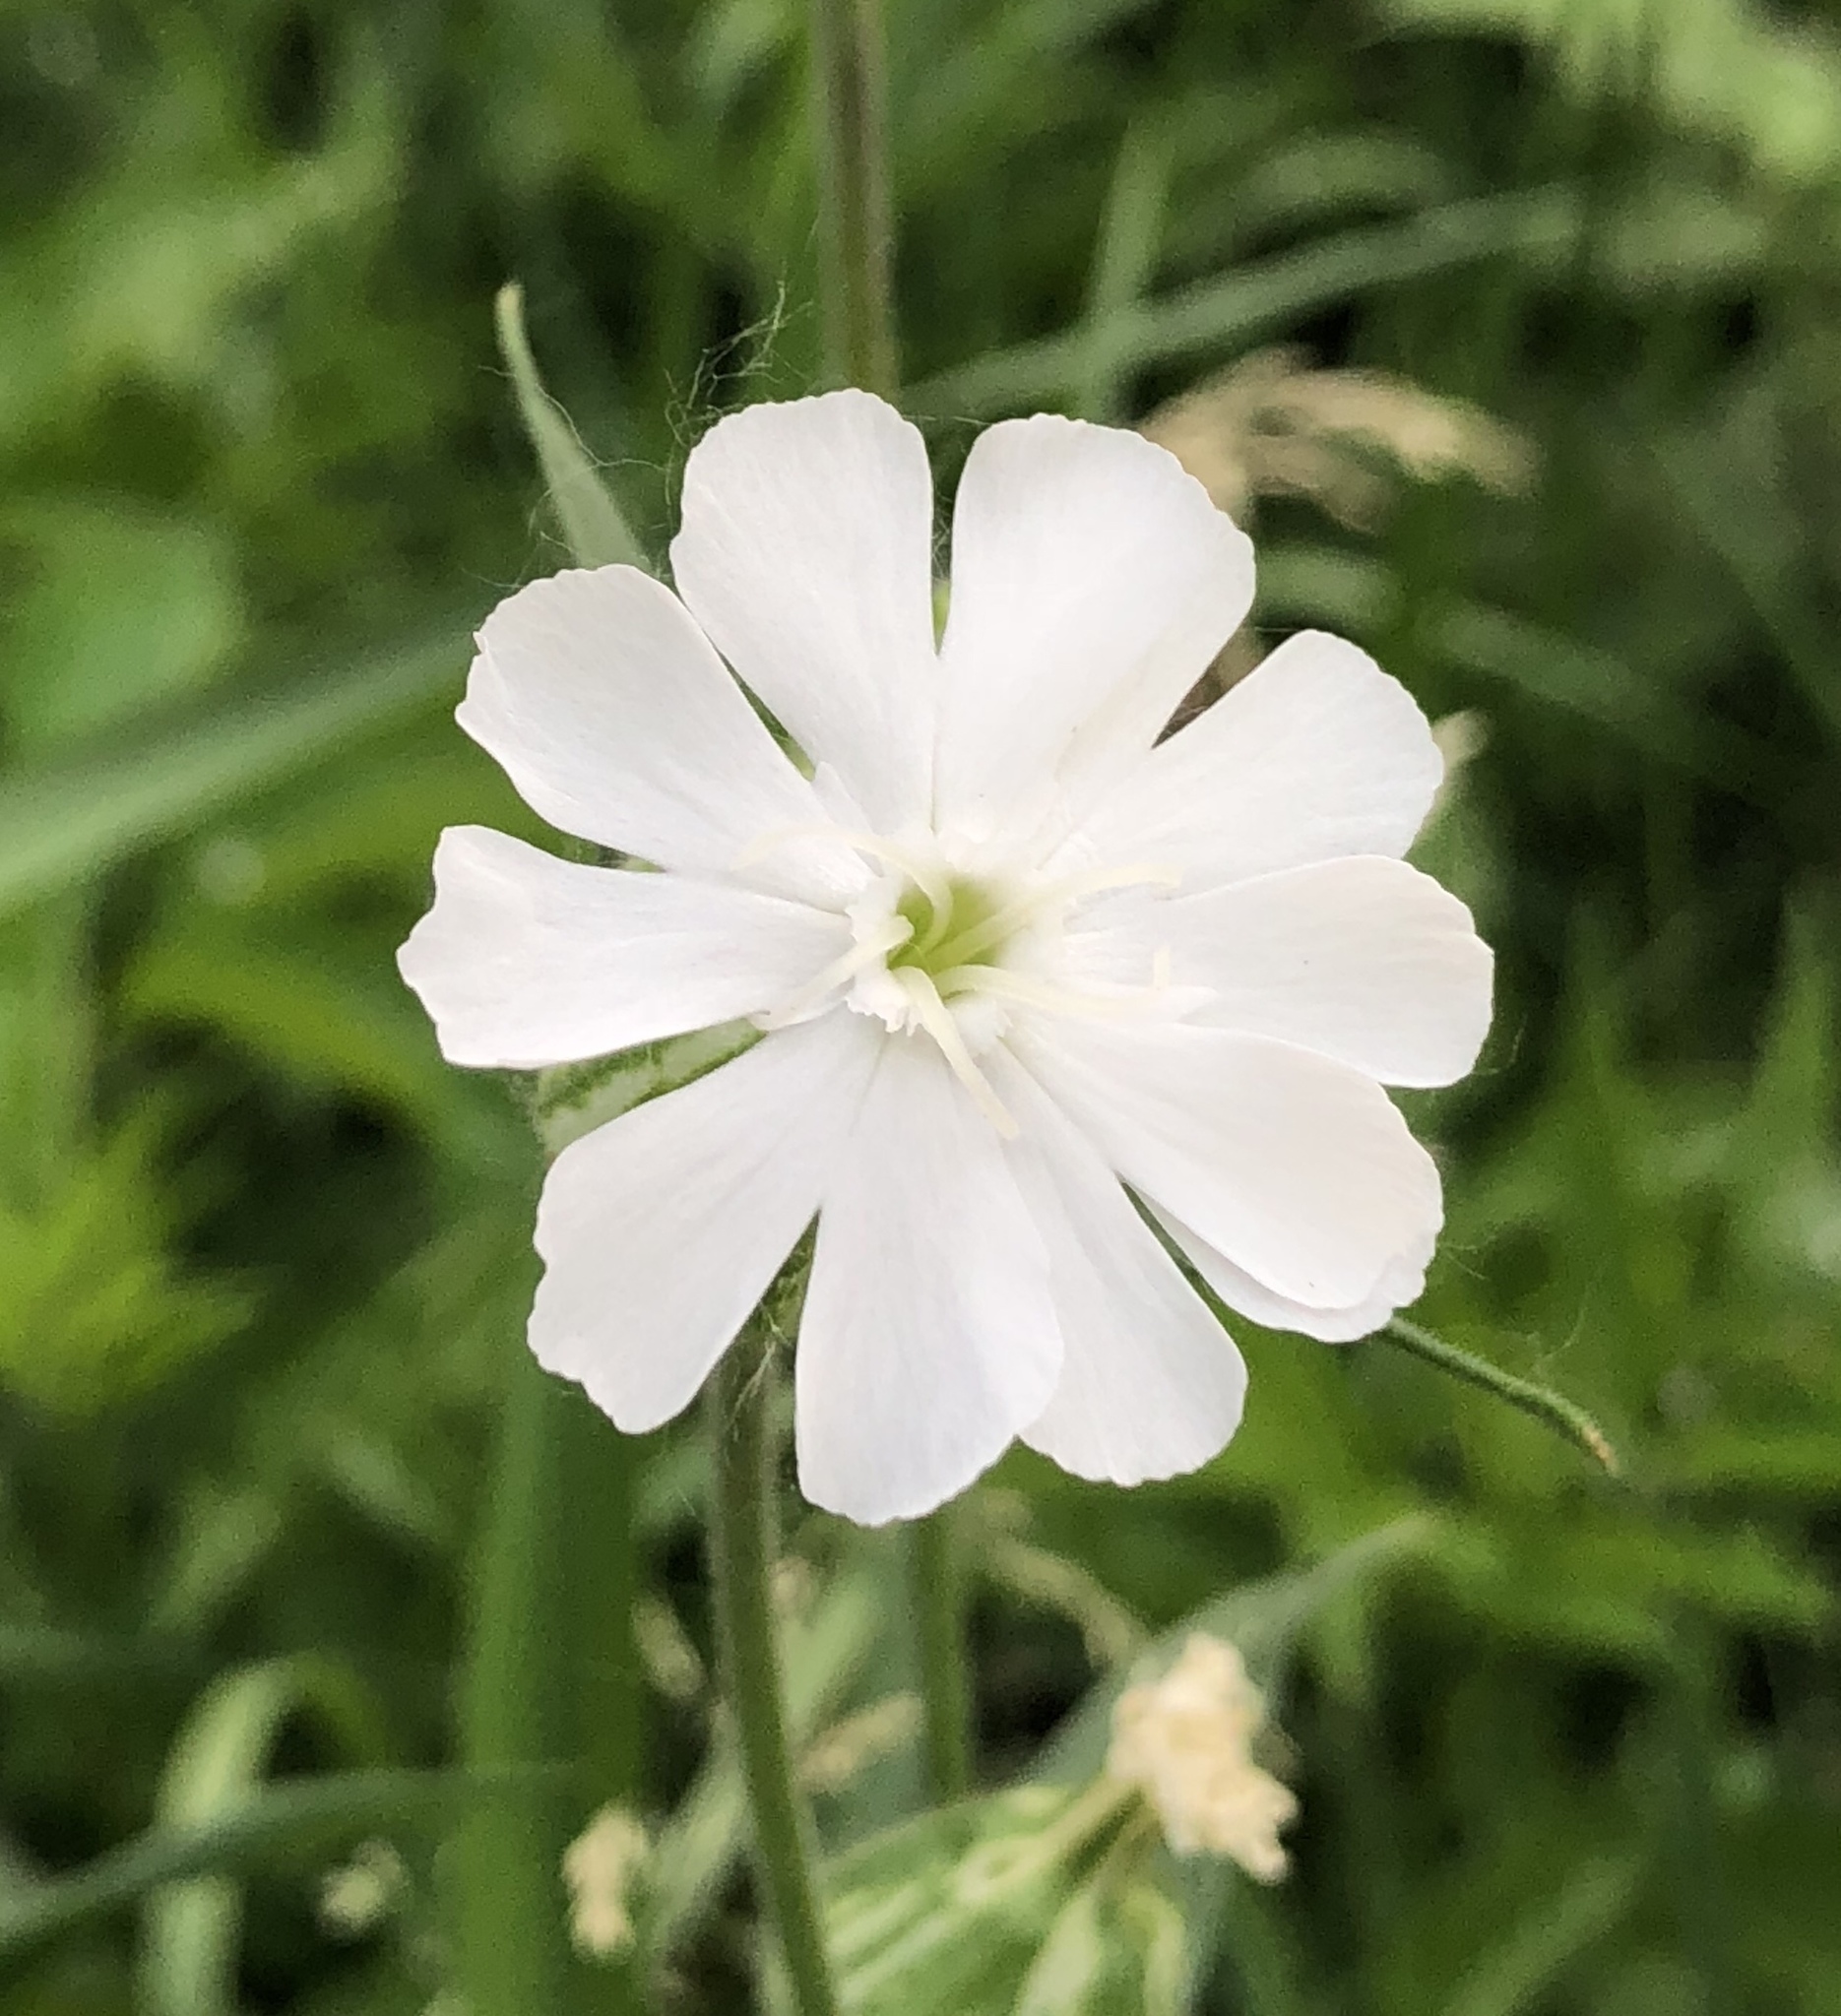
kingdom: Plantae
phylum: Tracheophyta
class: Magnoliopsida
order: Caryophyllales
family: Caryophyllaceae
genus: Silene
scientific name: Silene latifolia
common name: White campion
